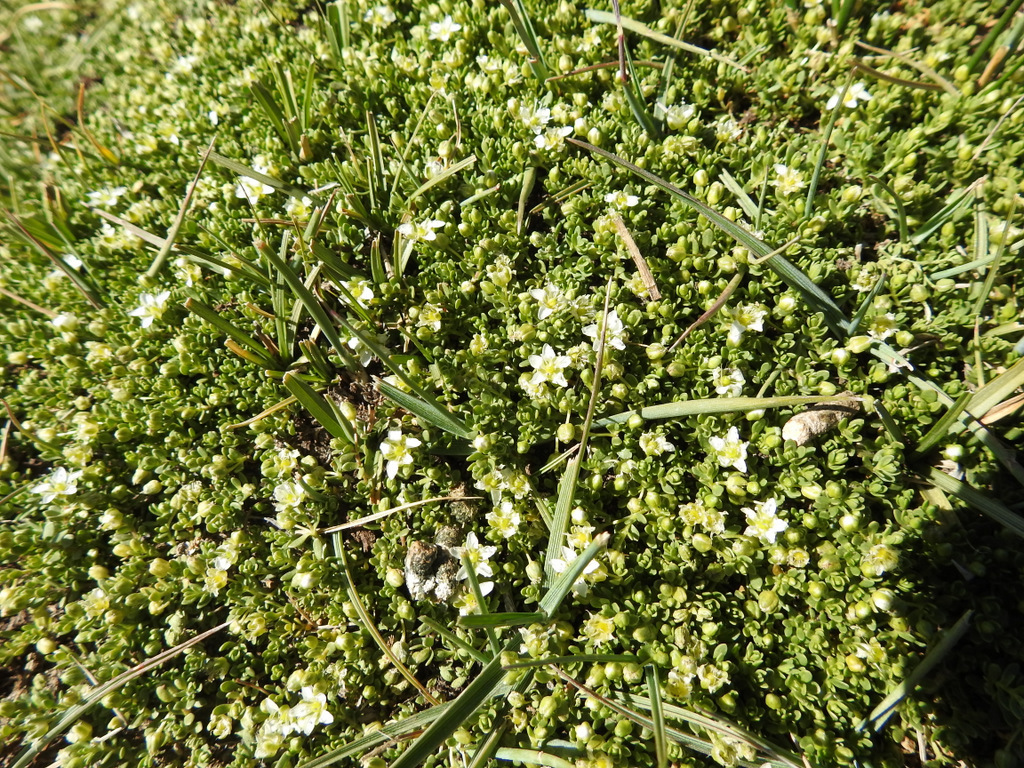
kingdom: Plantae
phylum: Tracheophyta
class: Magnoliopsida
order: Caryophyllales
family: Caryophyllaceae
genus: Arenaria
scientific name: Arenaria serpens
